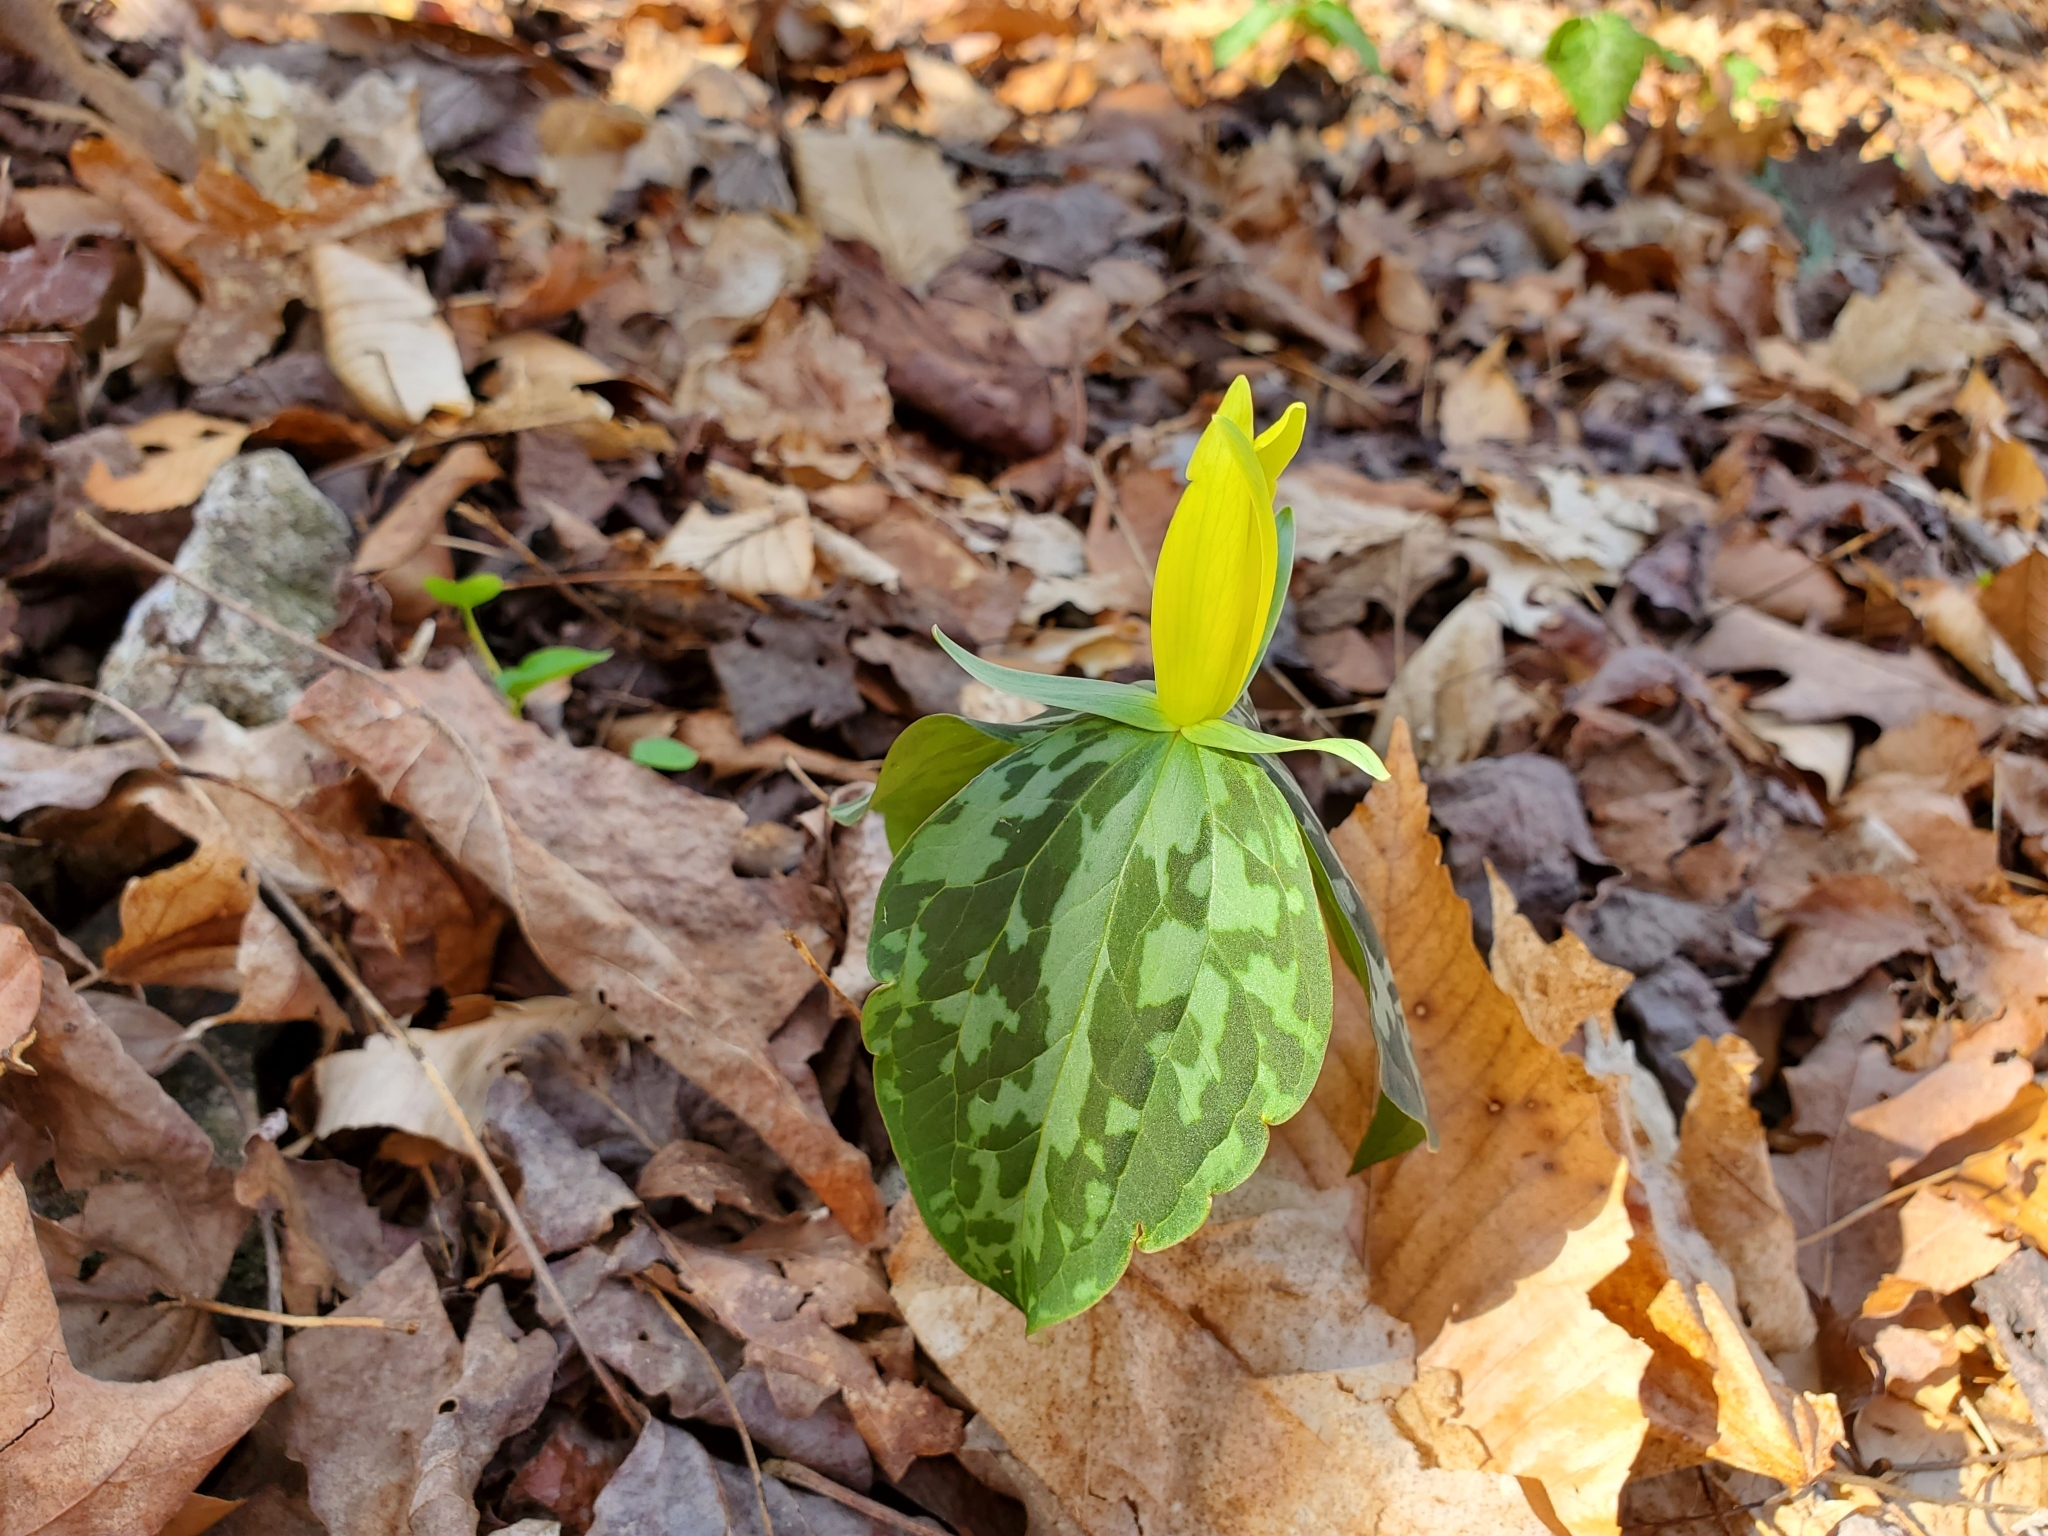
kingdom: Plantae
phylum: Tracheophyta
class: Liliopsida
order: Liliales
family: Melanthiaceae
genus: Trillium
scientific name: Trillium luteum
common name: Wax trillium
